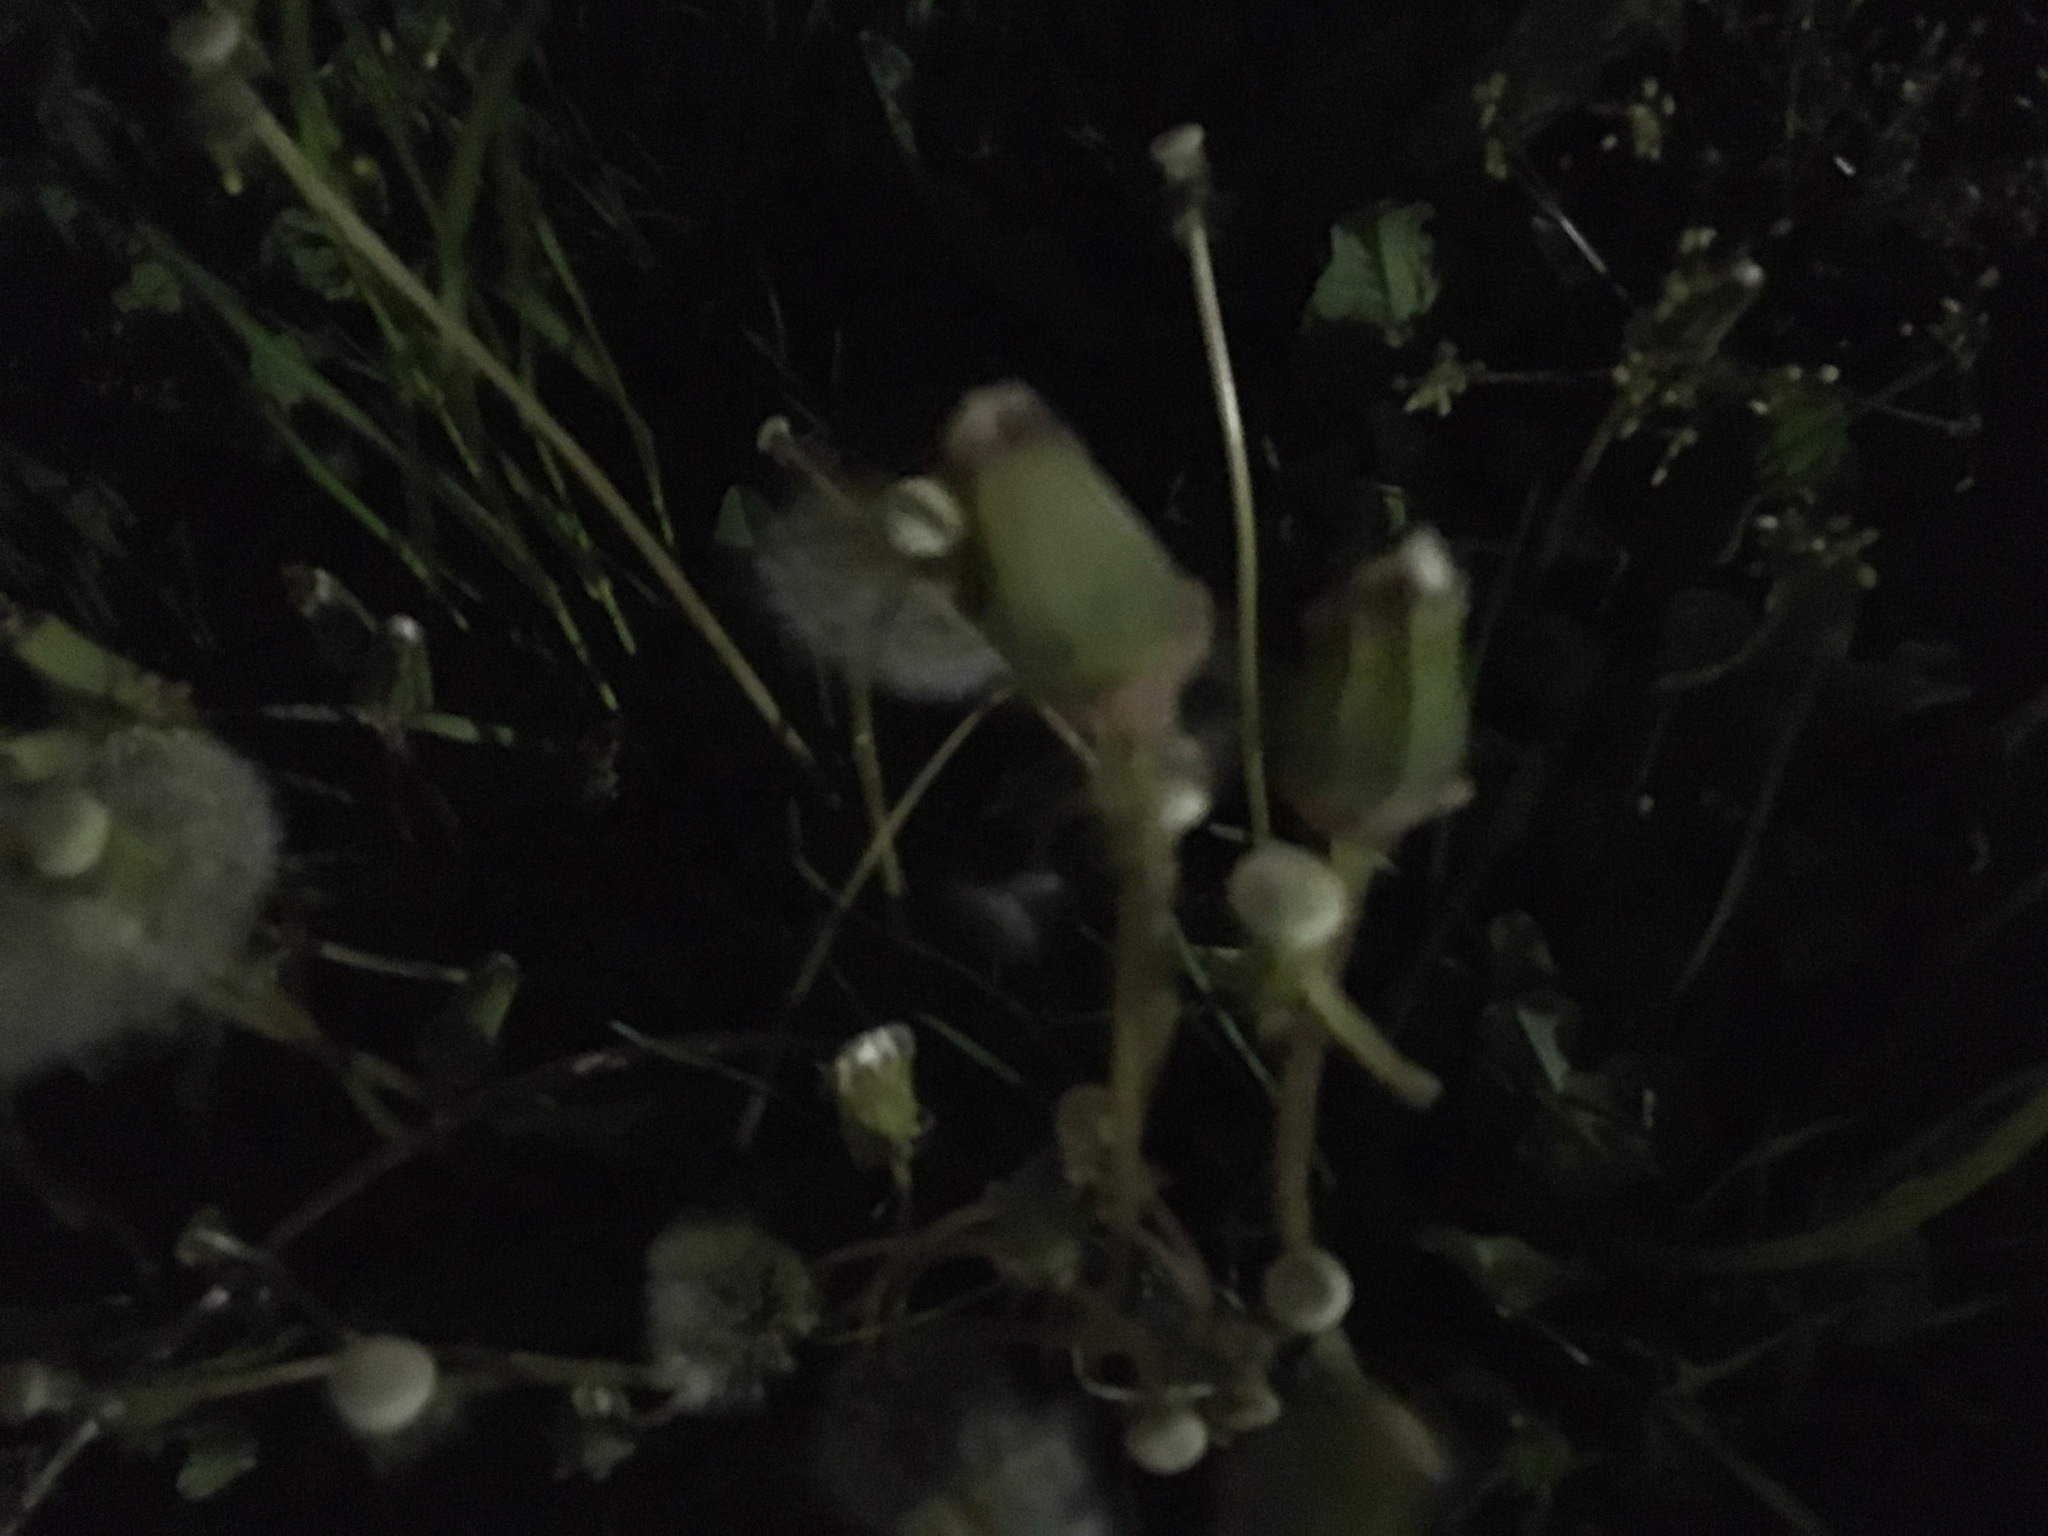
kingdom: Plantae
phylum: Tracheophyta
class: Magnoliopsida
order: Asterales
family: Asteraceae
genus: Taraxacum
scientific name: Taraxacum officinale
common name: Common dandelion
